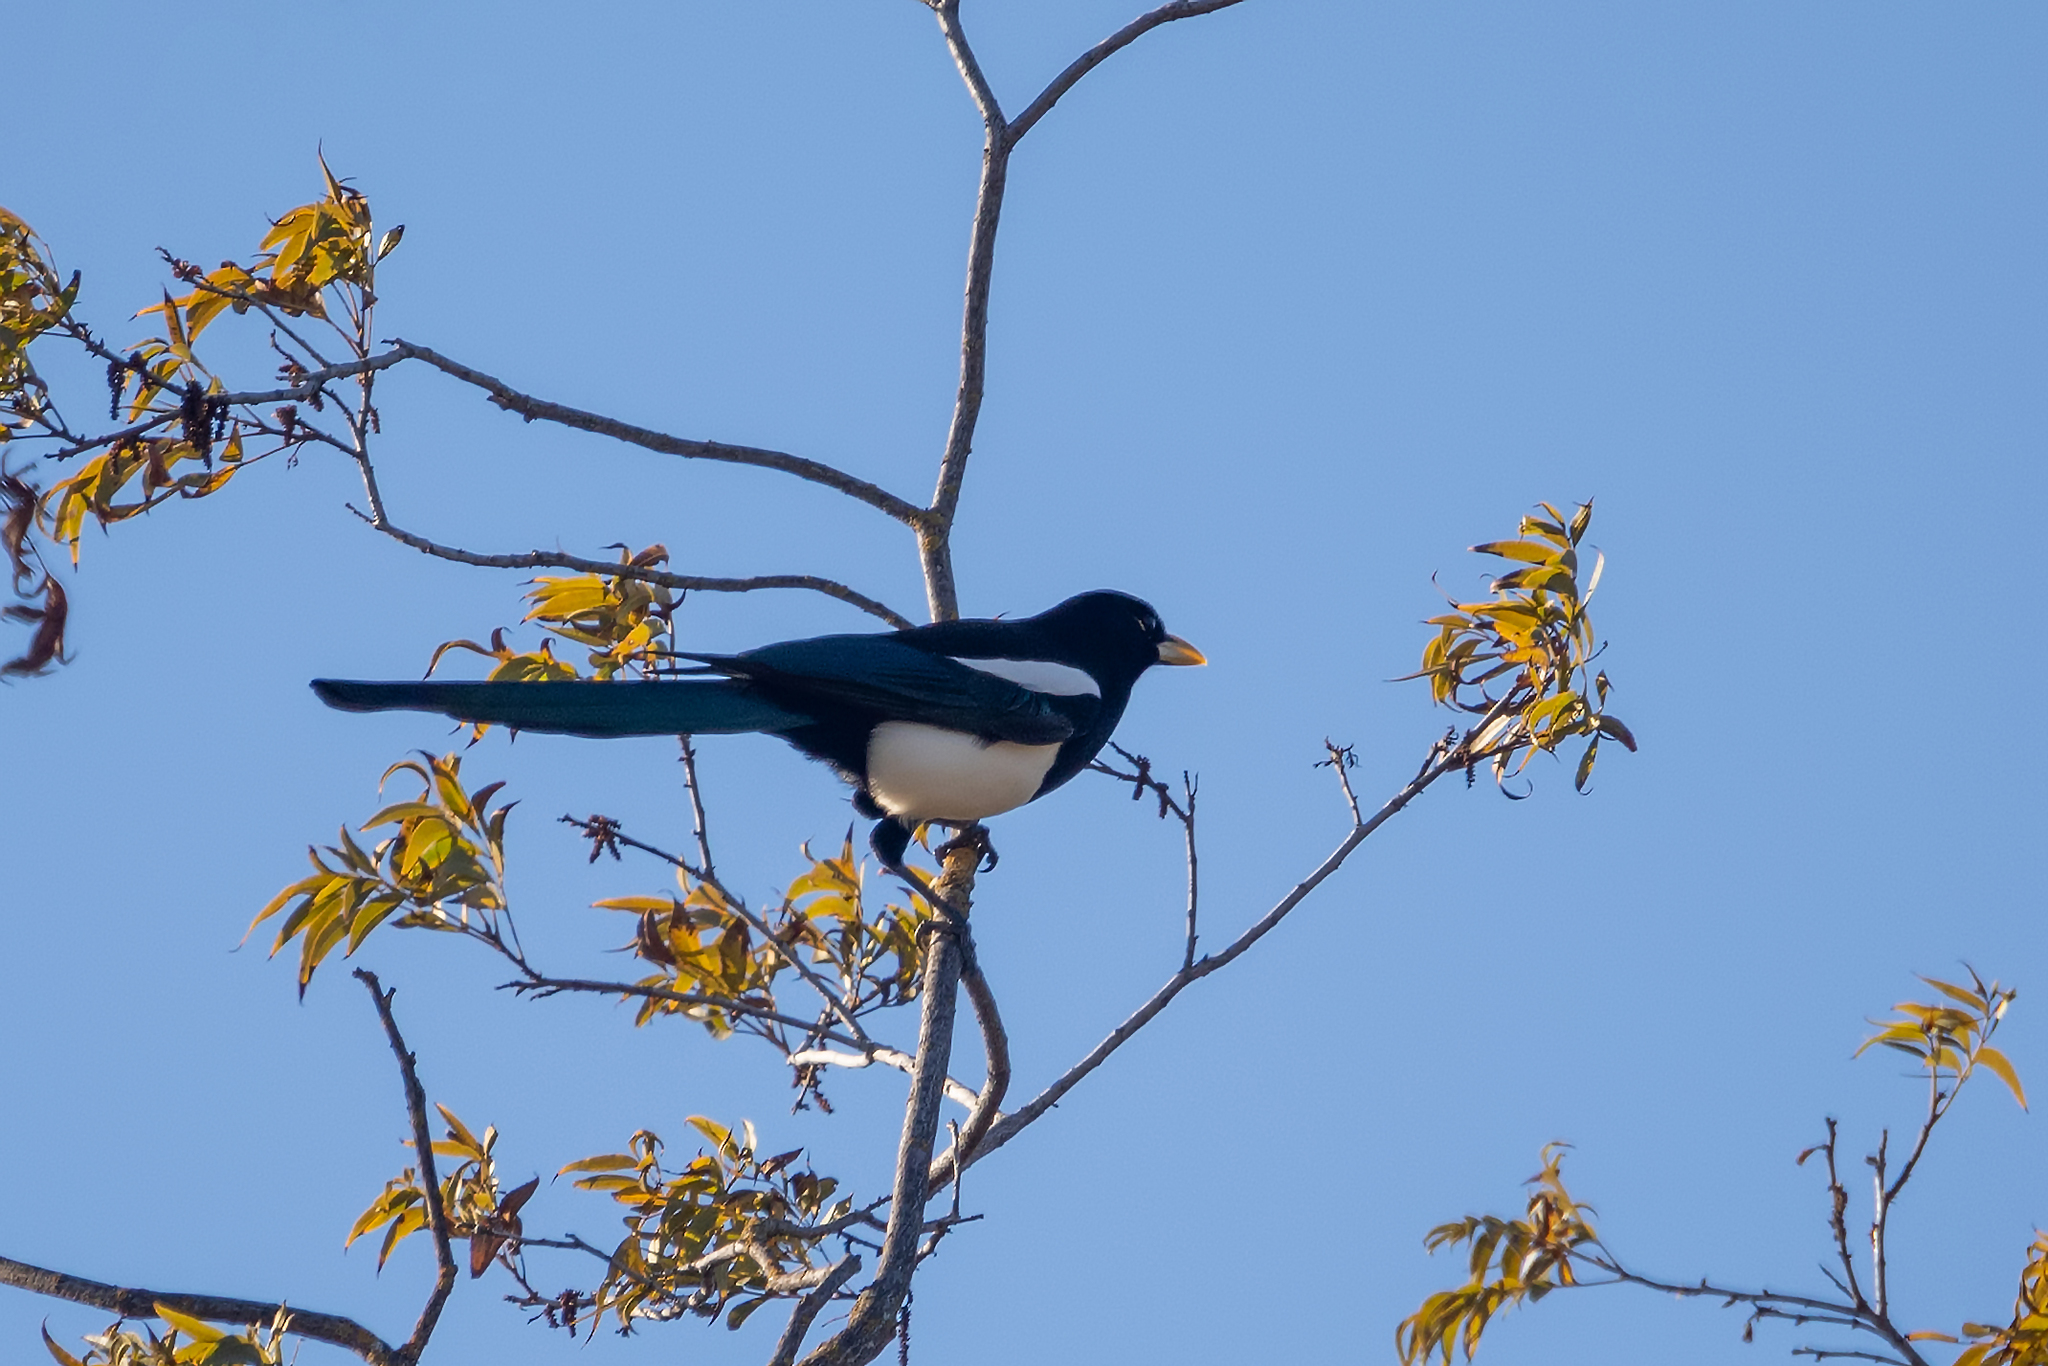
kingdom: Animalia
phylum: Chordata
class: Aves
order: Passeriformes
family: Corvidae
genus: Pica
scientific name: Pica nuttalli
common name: Yellow-billed magpie
